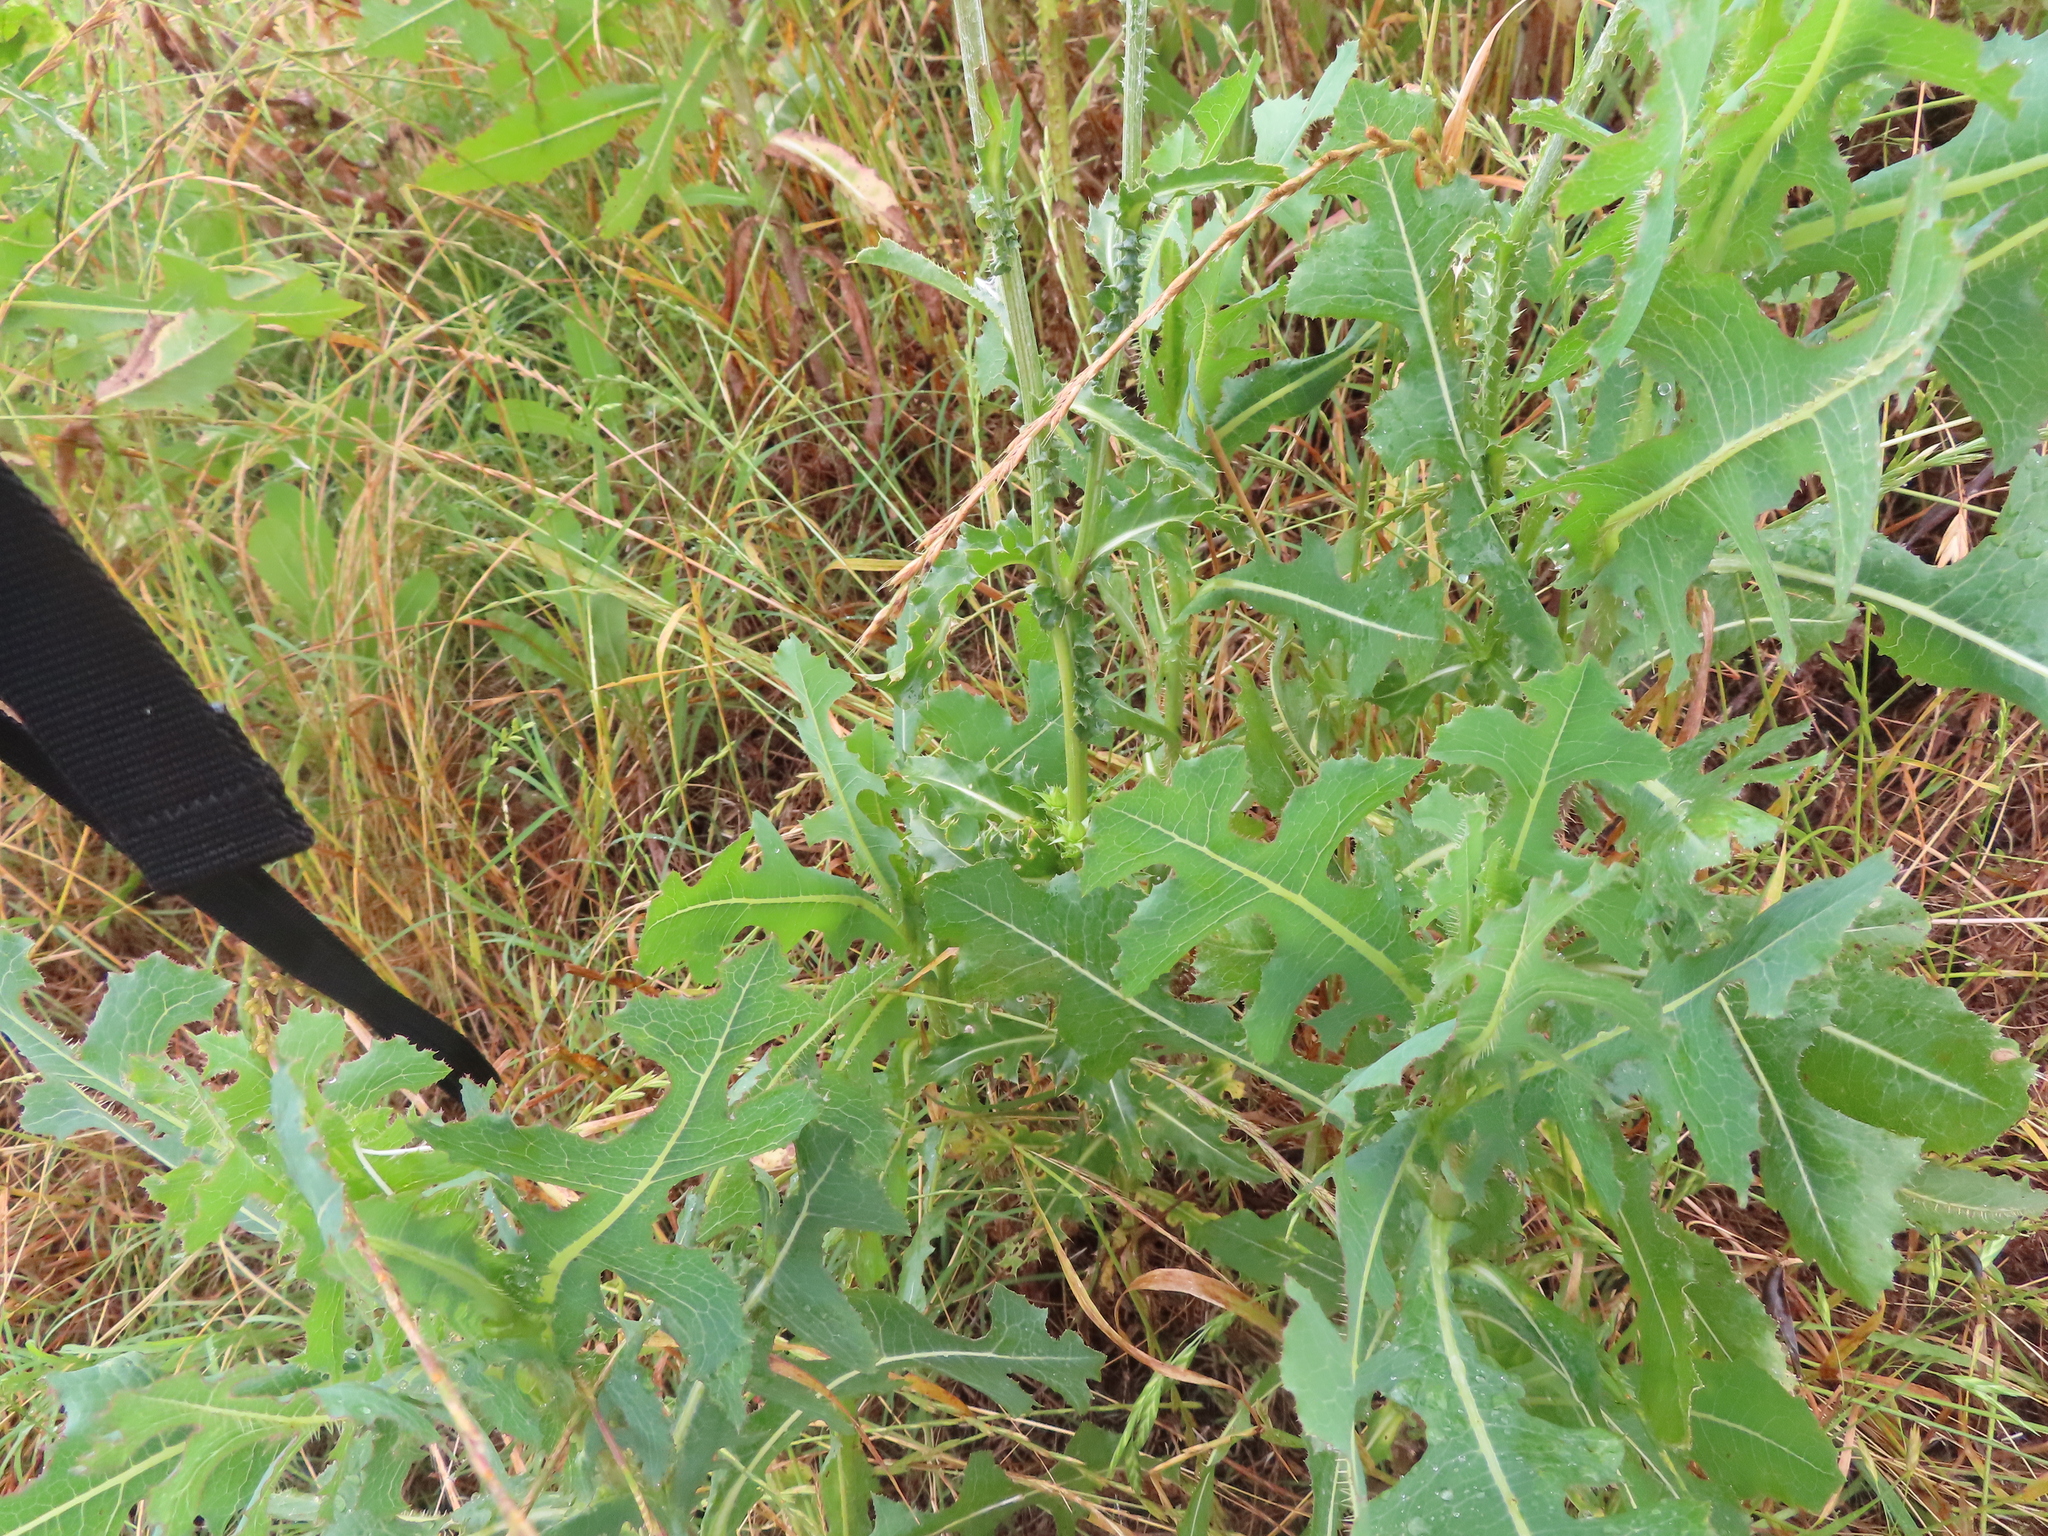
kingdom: Plantae
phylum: Tracheophyta
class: Magnoliopsida
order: Asterales
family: Asteraceae
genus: Lactuca
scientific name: Lactuca serriola
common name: Prickly lettuce
